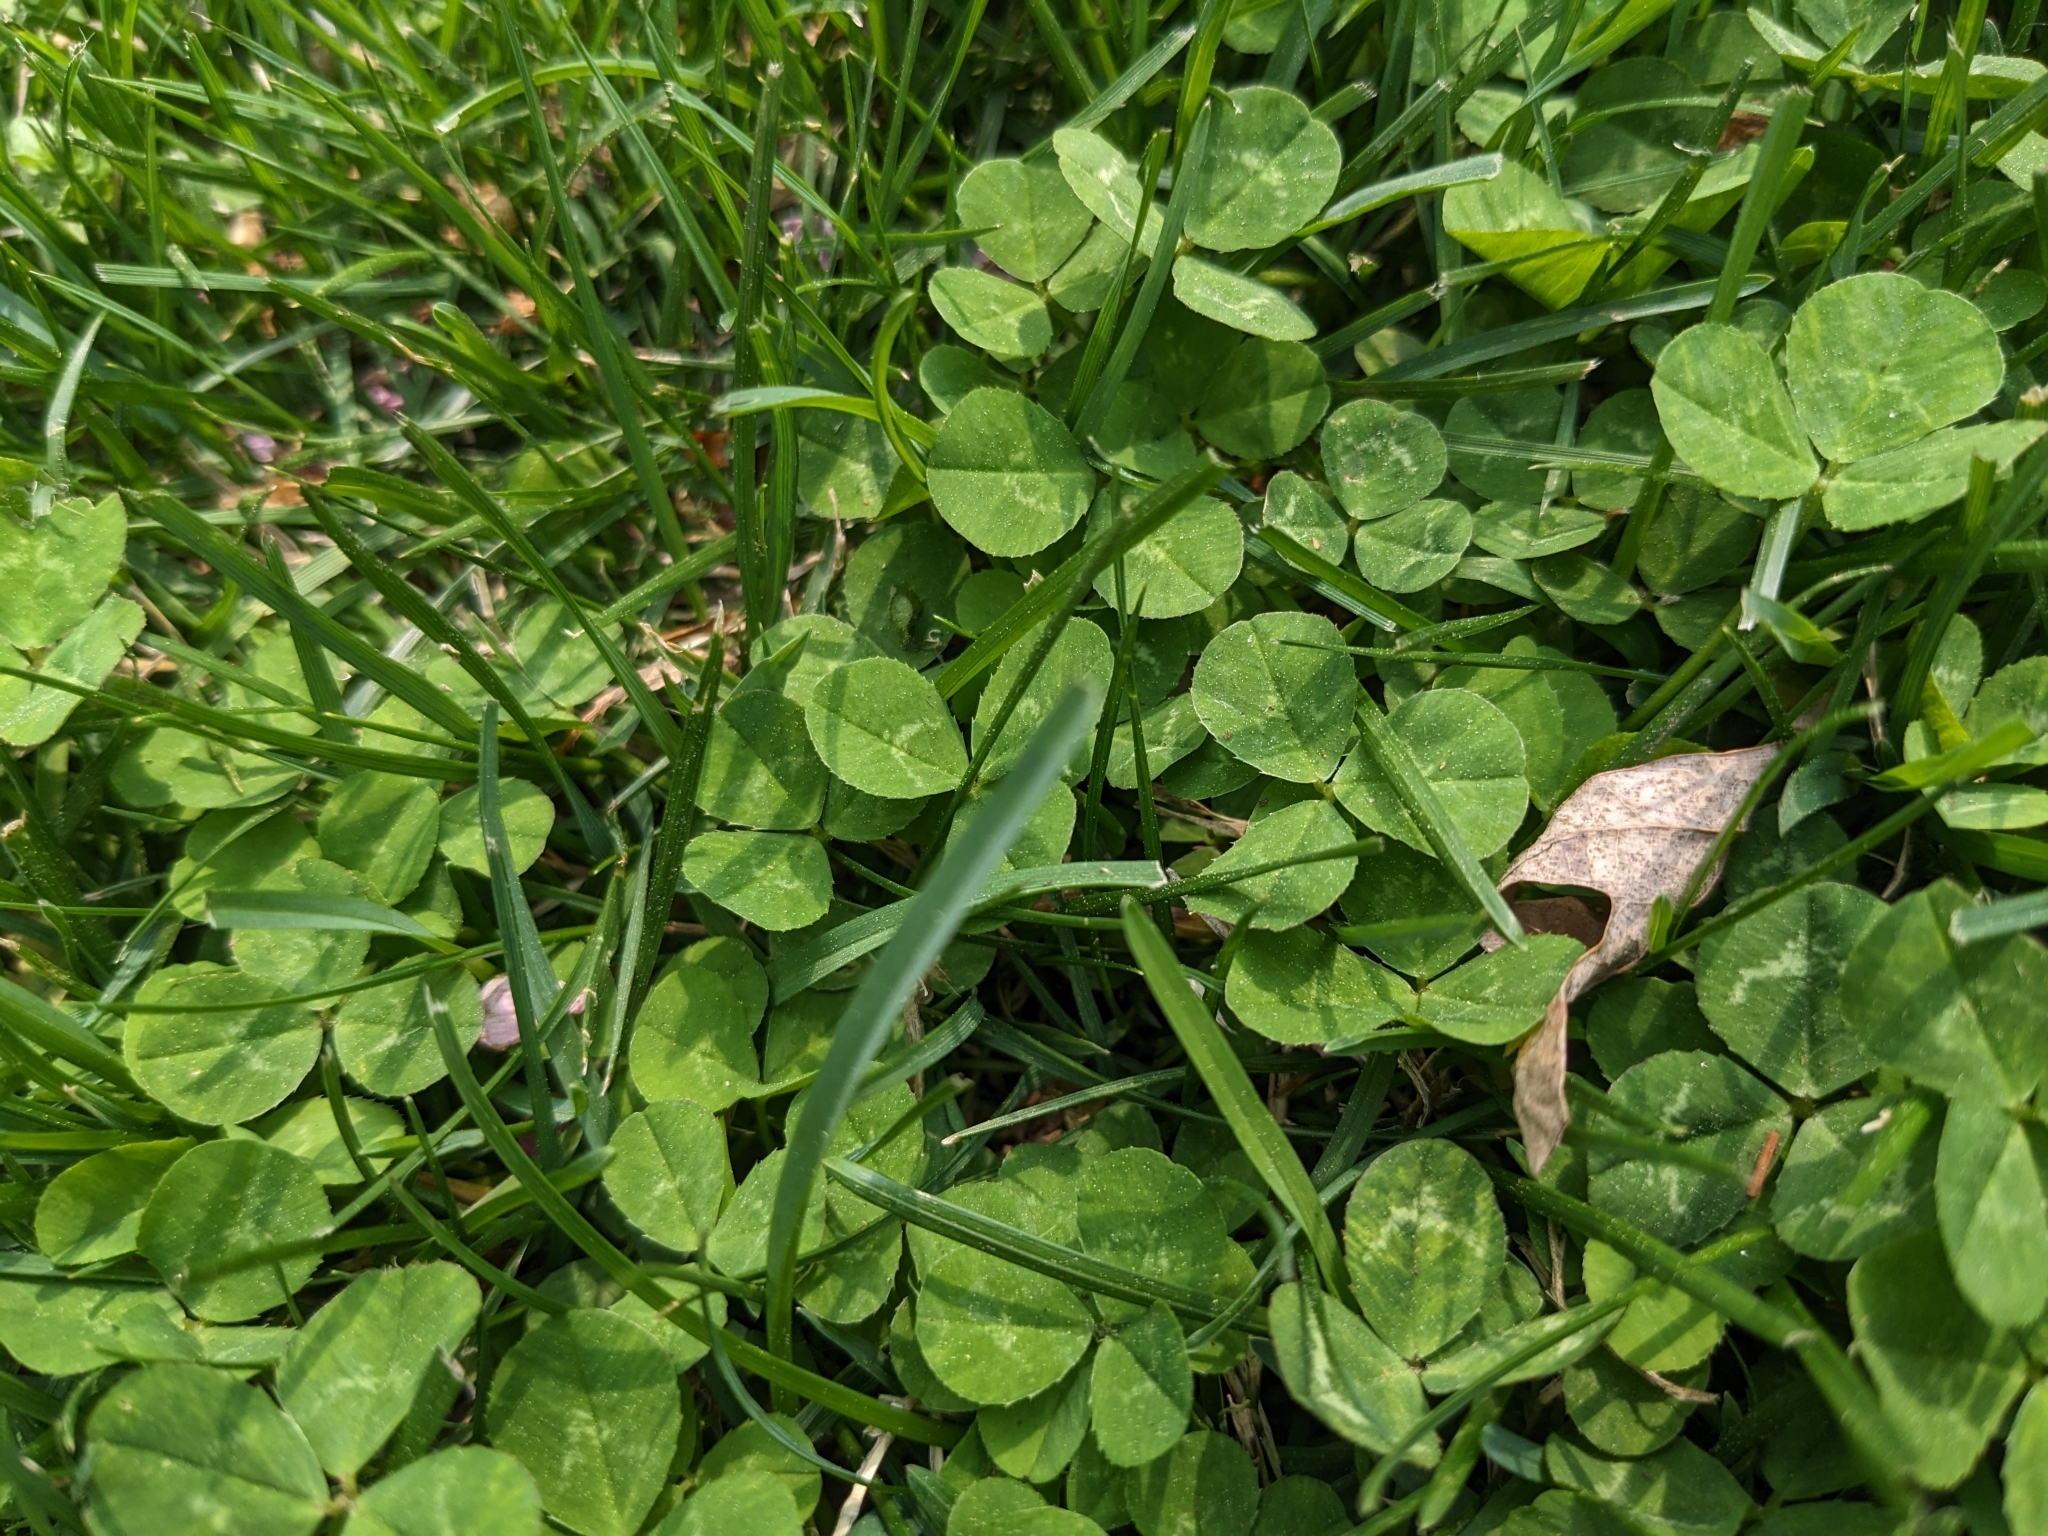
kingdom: Plantae
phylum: Tracheophyta
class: Magnoliopsida
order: Fabales
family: Fabaceae
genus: Trifolium
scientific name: Trifolium repens
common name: White clover
